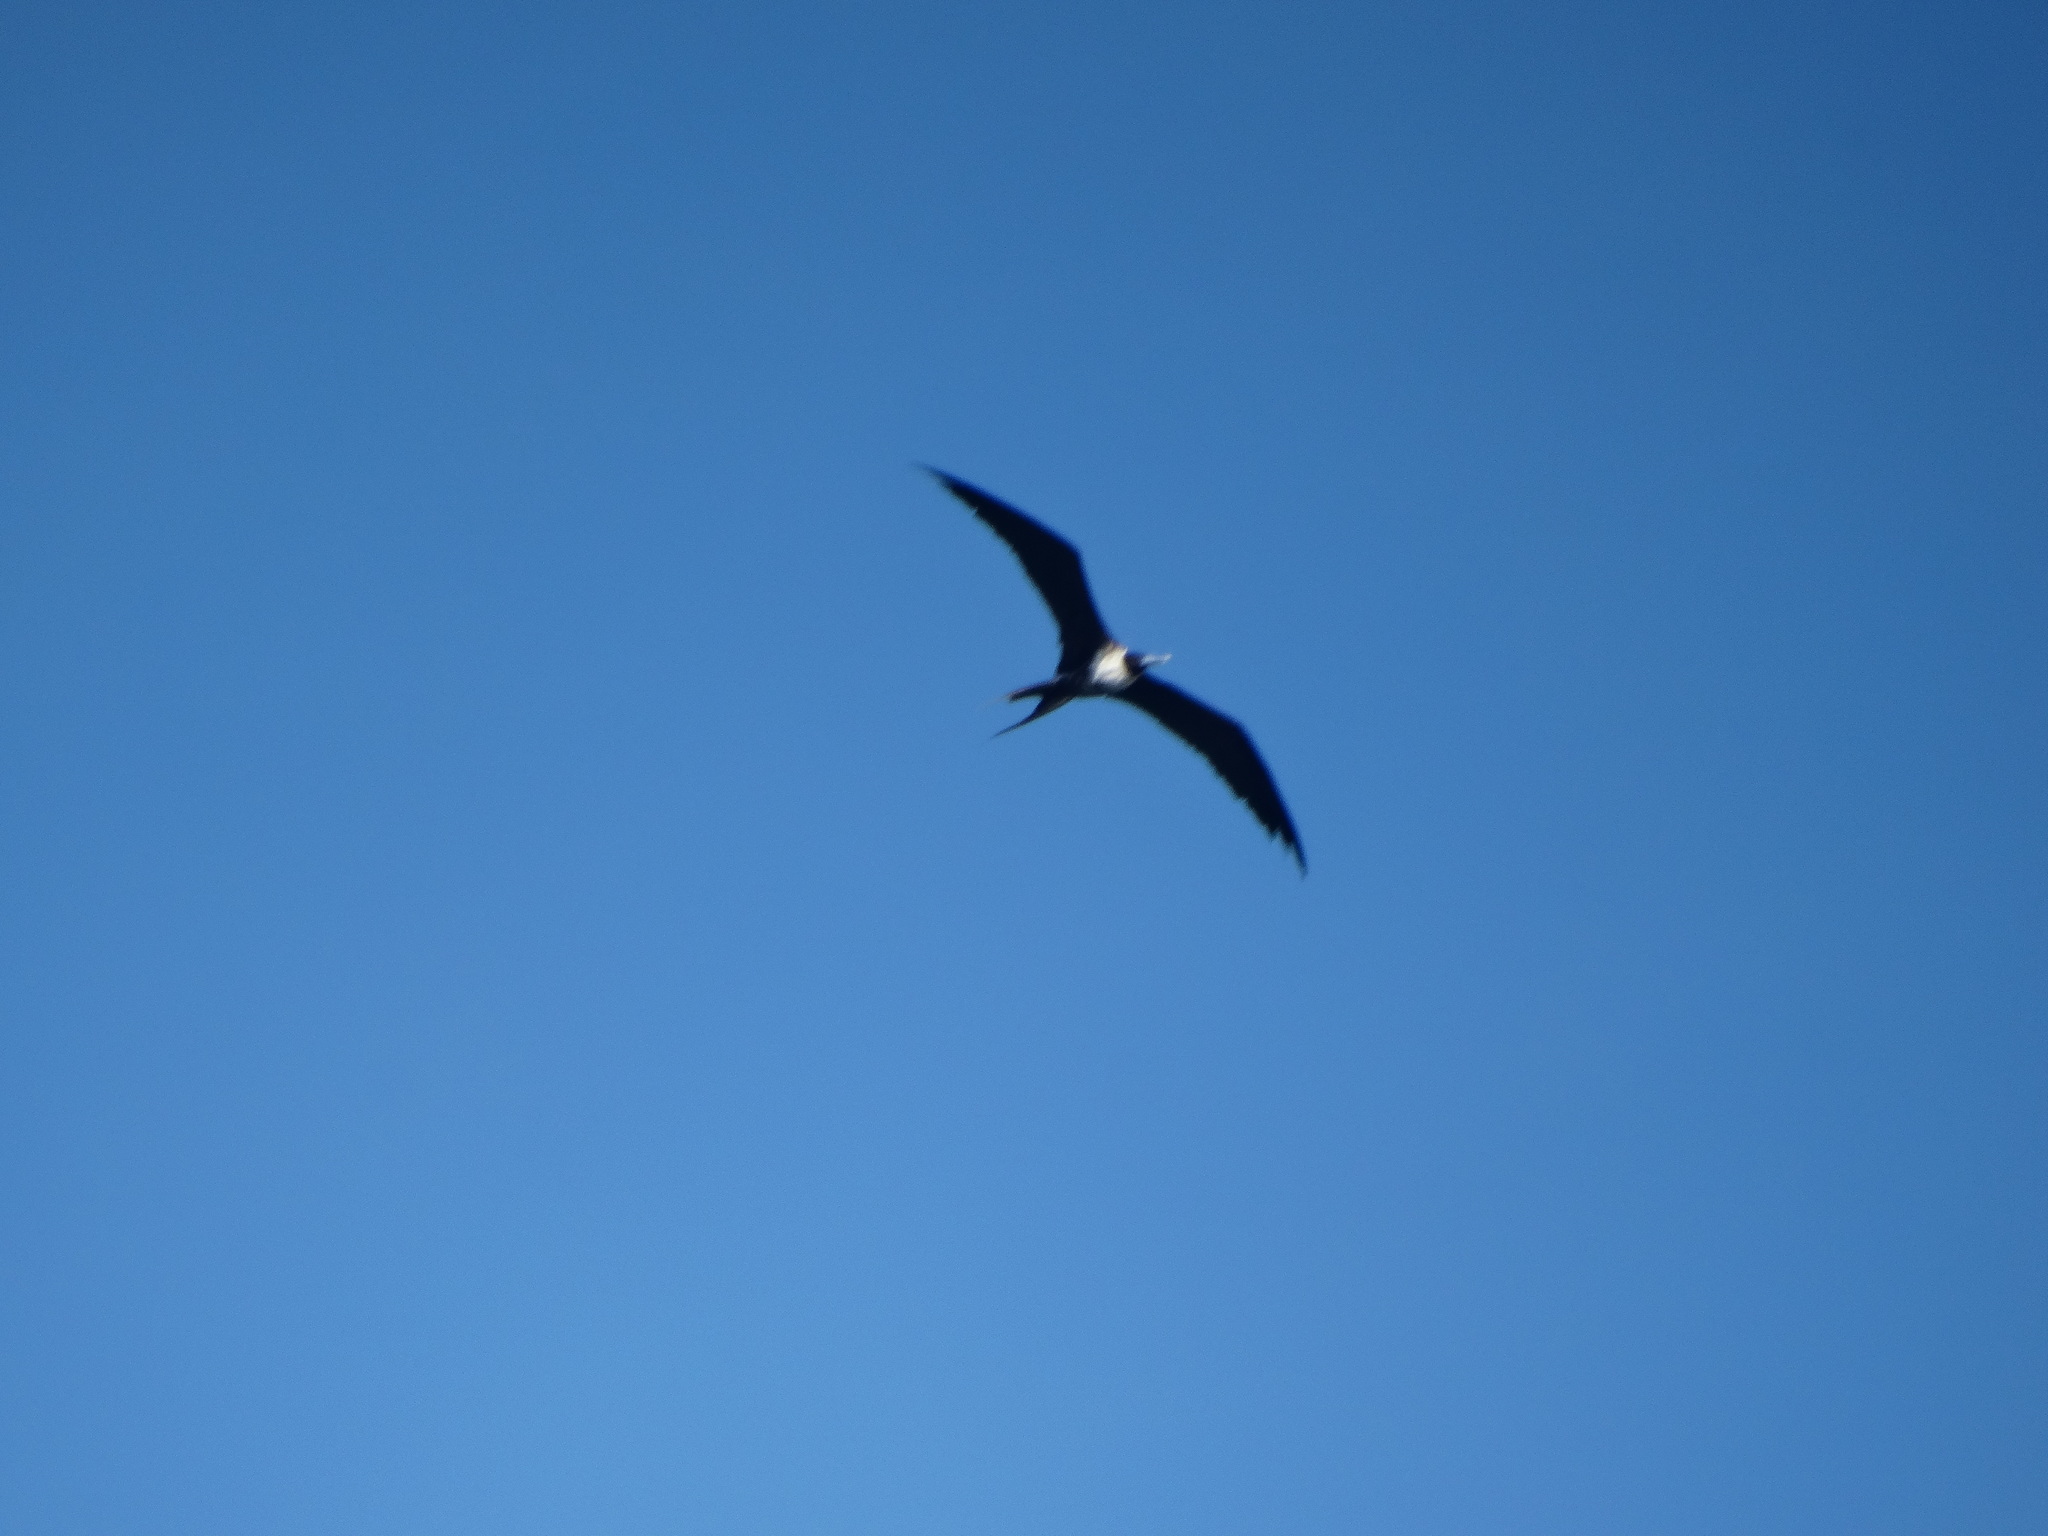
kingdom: Animalia
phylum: Chordata
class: Aves
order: Suliformes
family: Fregatidae
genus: Fregata
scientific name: Fregata magnificens
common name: Magnificent frigatebird
